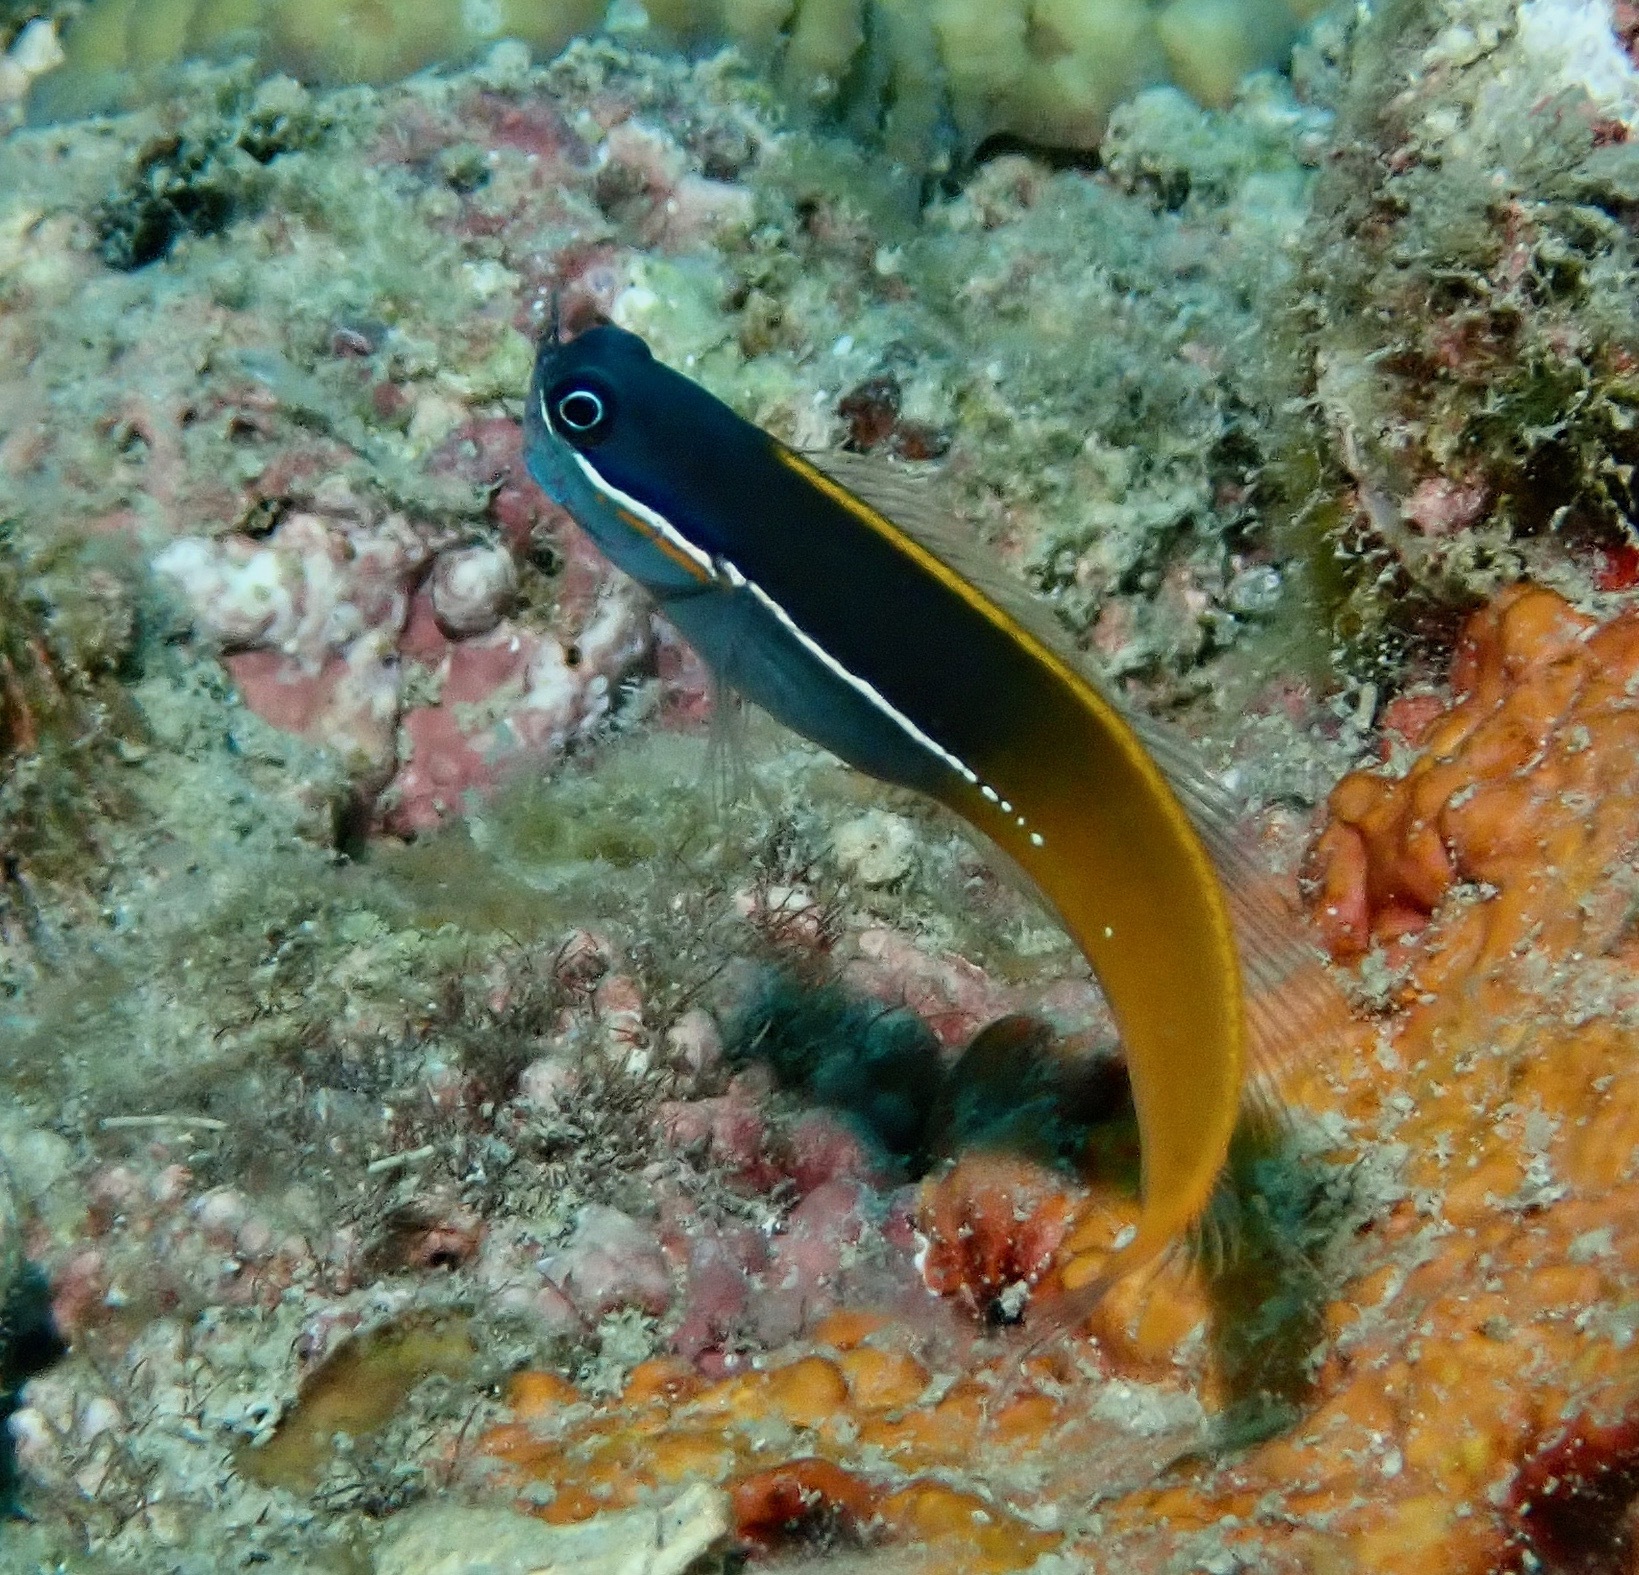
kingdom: Animalia
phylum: Chordata
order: Perciformes
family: Blenniidae
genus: Ecsenius
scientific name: Ecsenius tricolor
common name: Derawan combtooth-blenny
